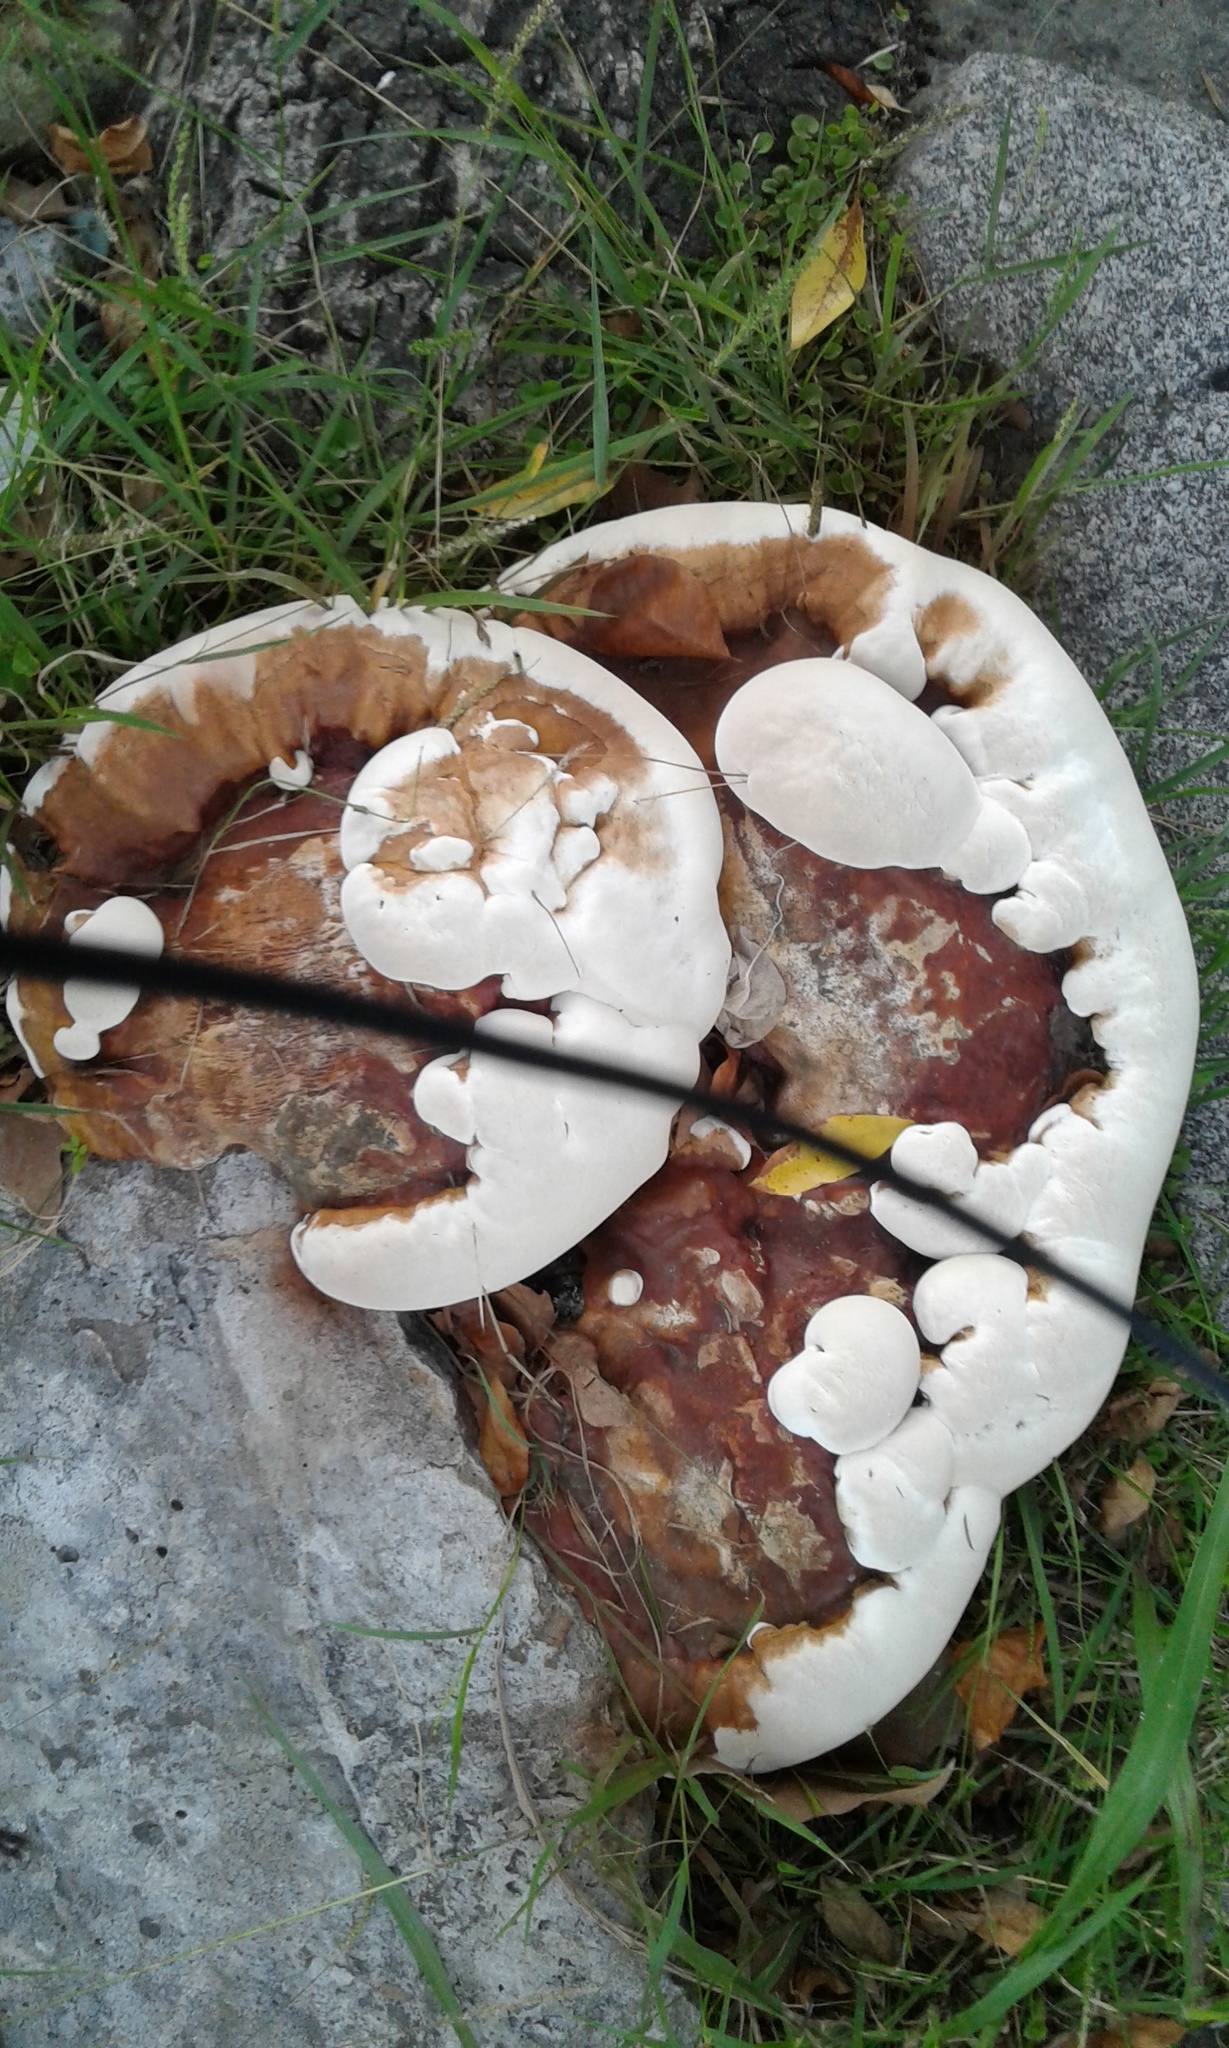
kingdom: Fungi
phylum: Basidiomycota
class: Agaricomycetes
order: Polyporales
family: Polyporaceae
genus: Ganoderma
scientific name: Ganoderma resinaceum
